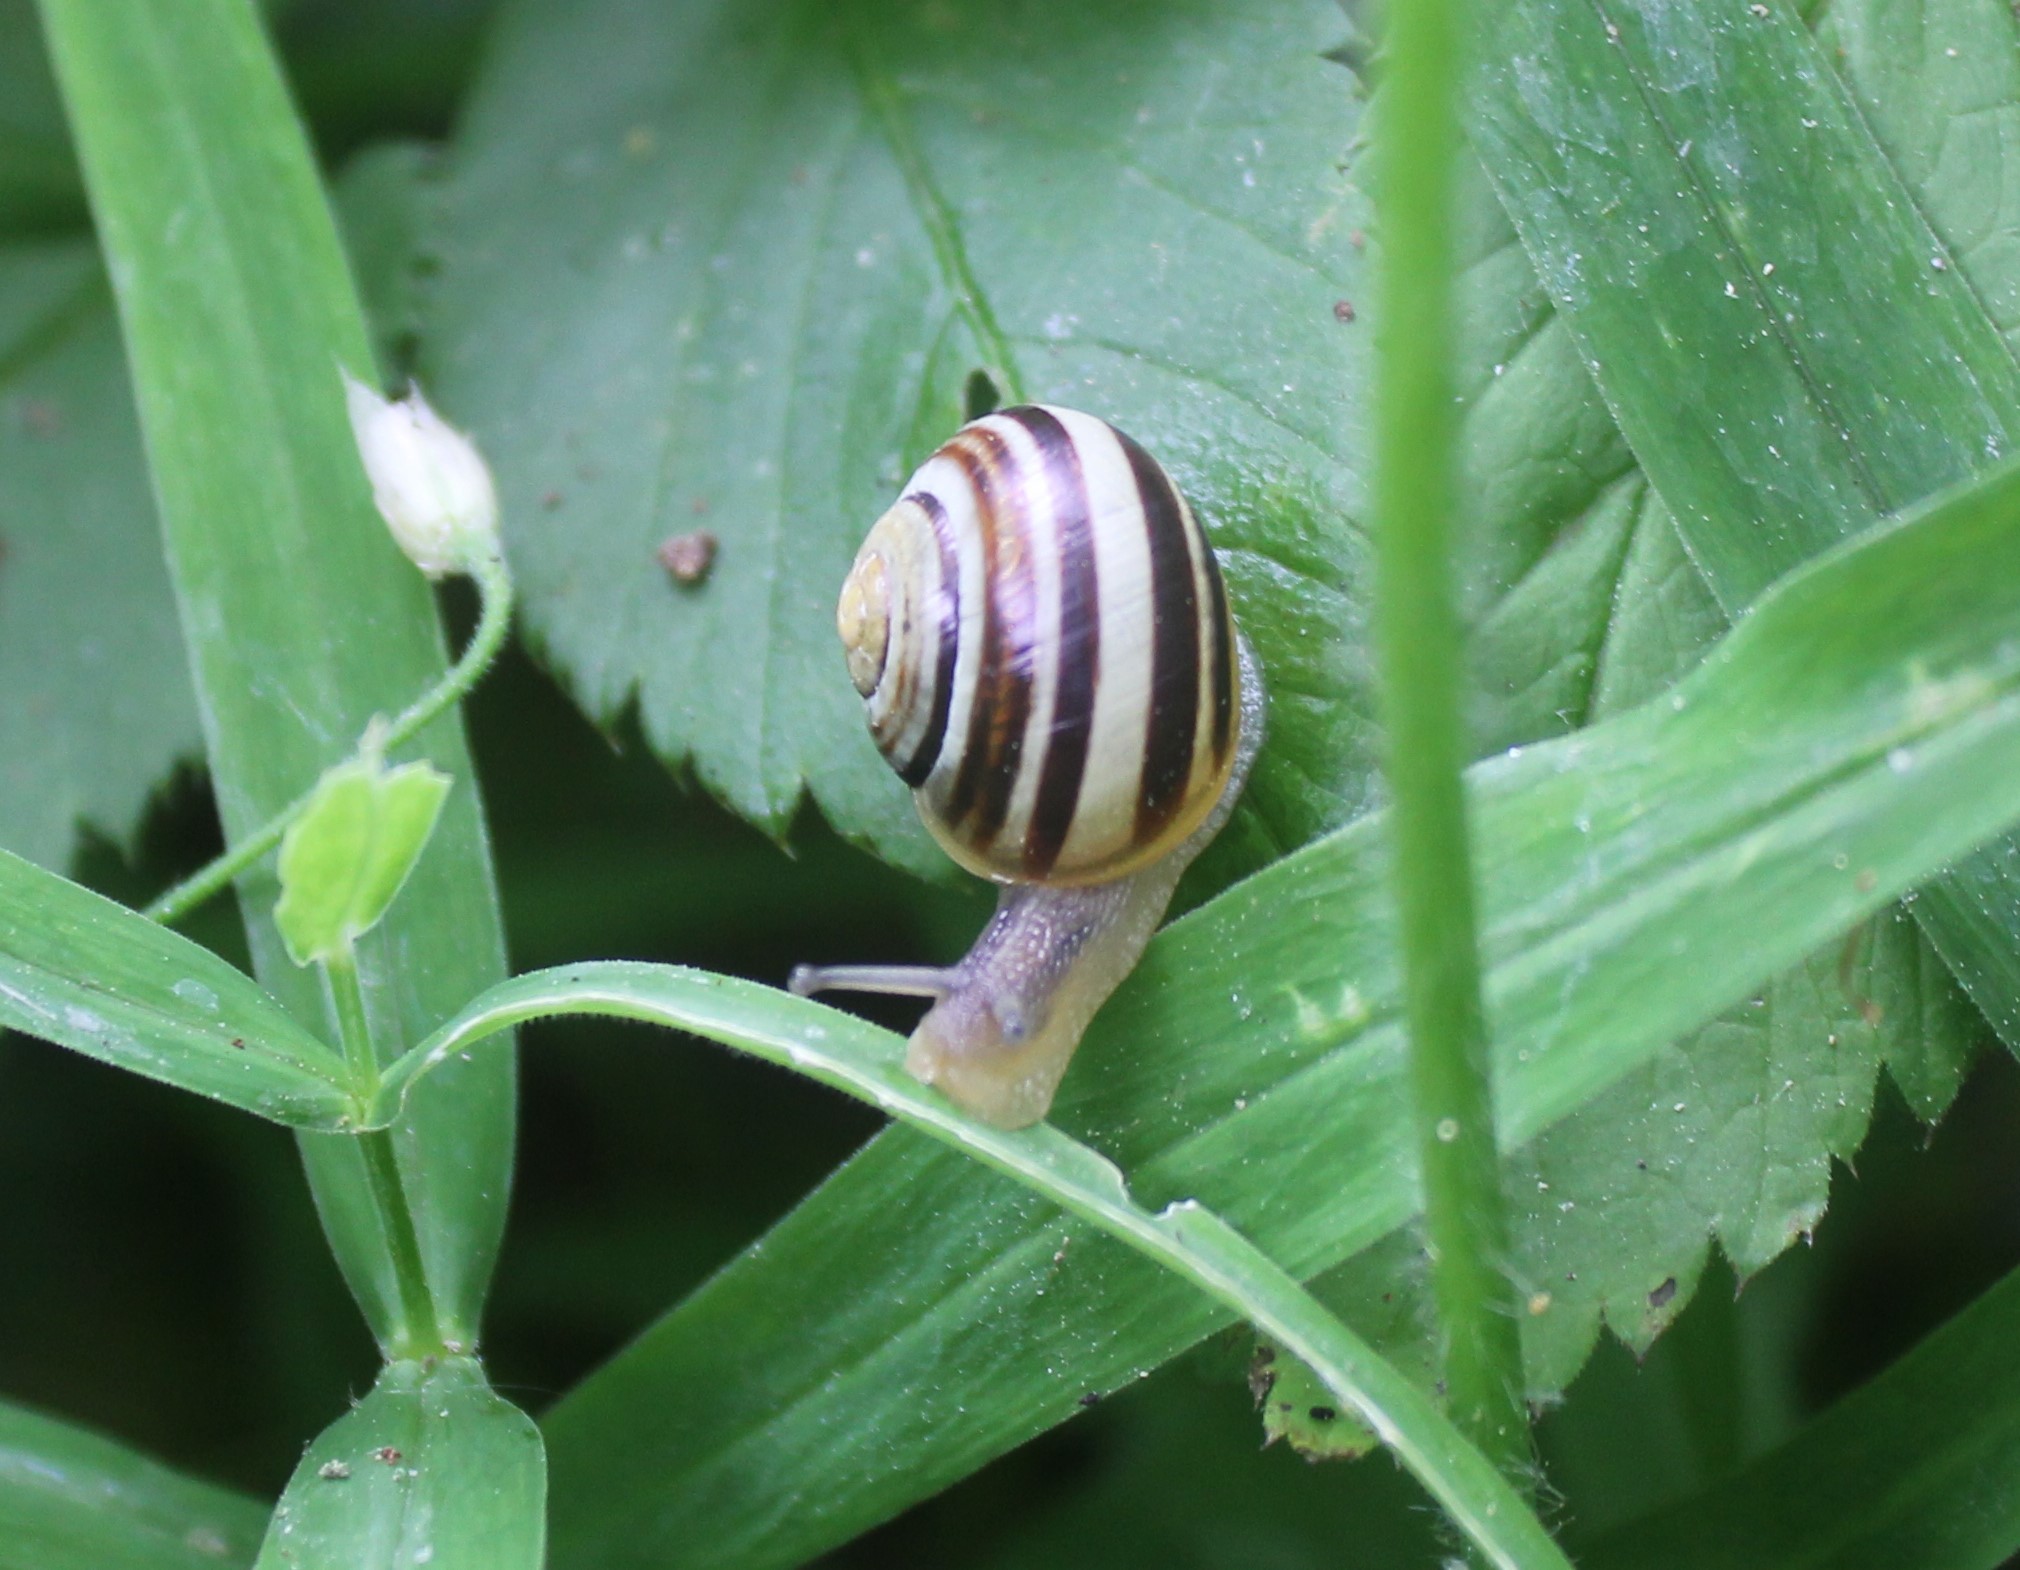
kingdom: Animalia
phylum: Mollusca
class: Gastropoda
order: Stylommatophora
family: Helicidae
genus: Cepaea
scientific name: Cepaea
